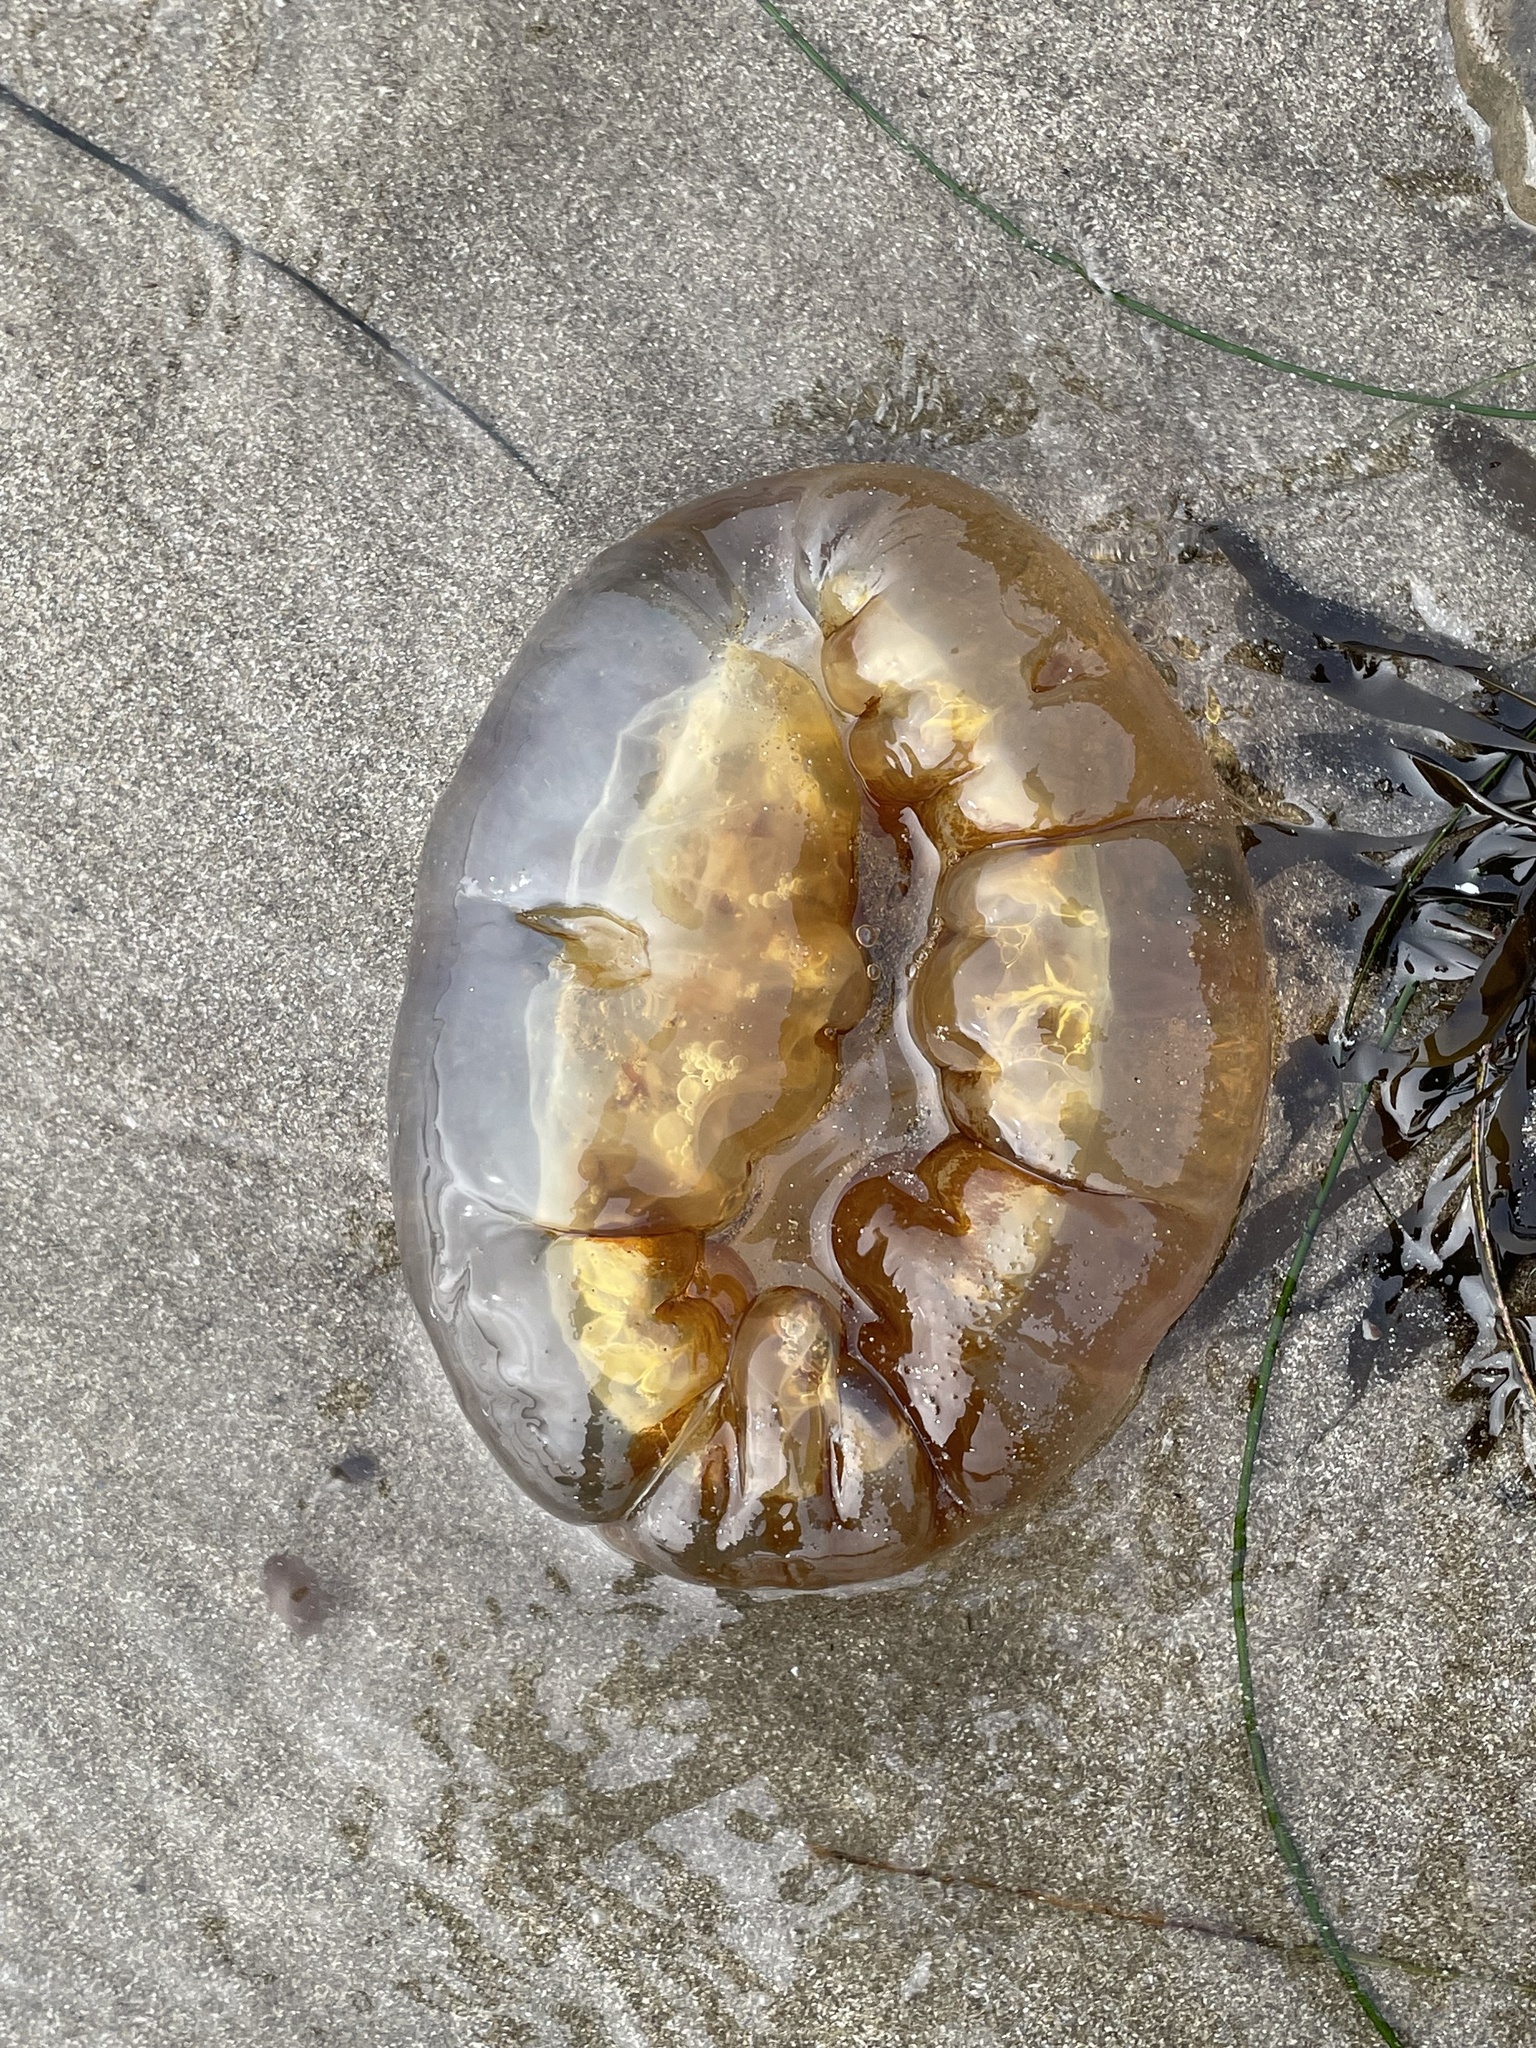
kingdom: Animalia
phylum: Cnidaria
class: Scyphozoa
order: Semaeostomeae
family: Pelagiidae
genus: Chrysaora
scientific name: Chrysaora fuscescens
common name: Sea nettle
